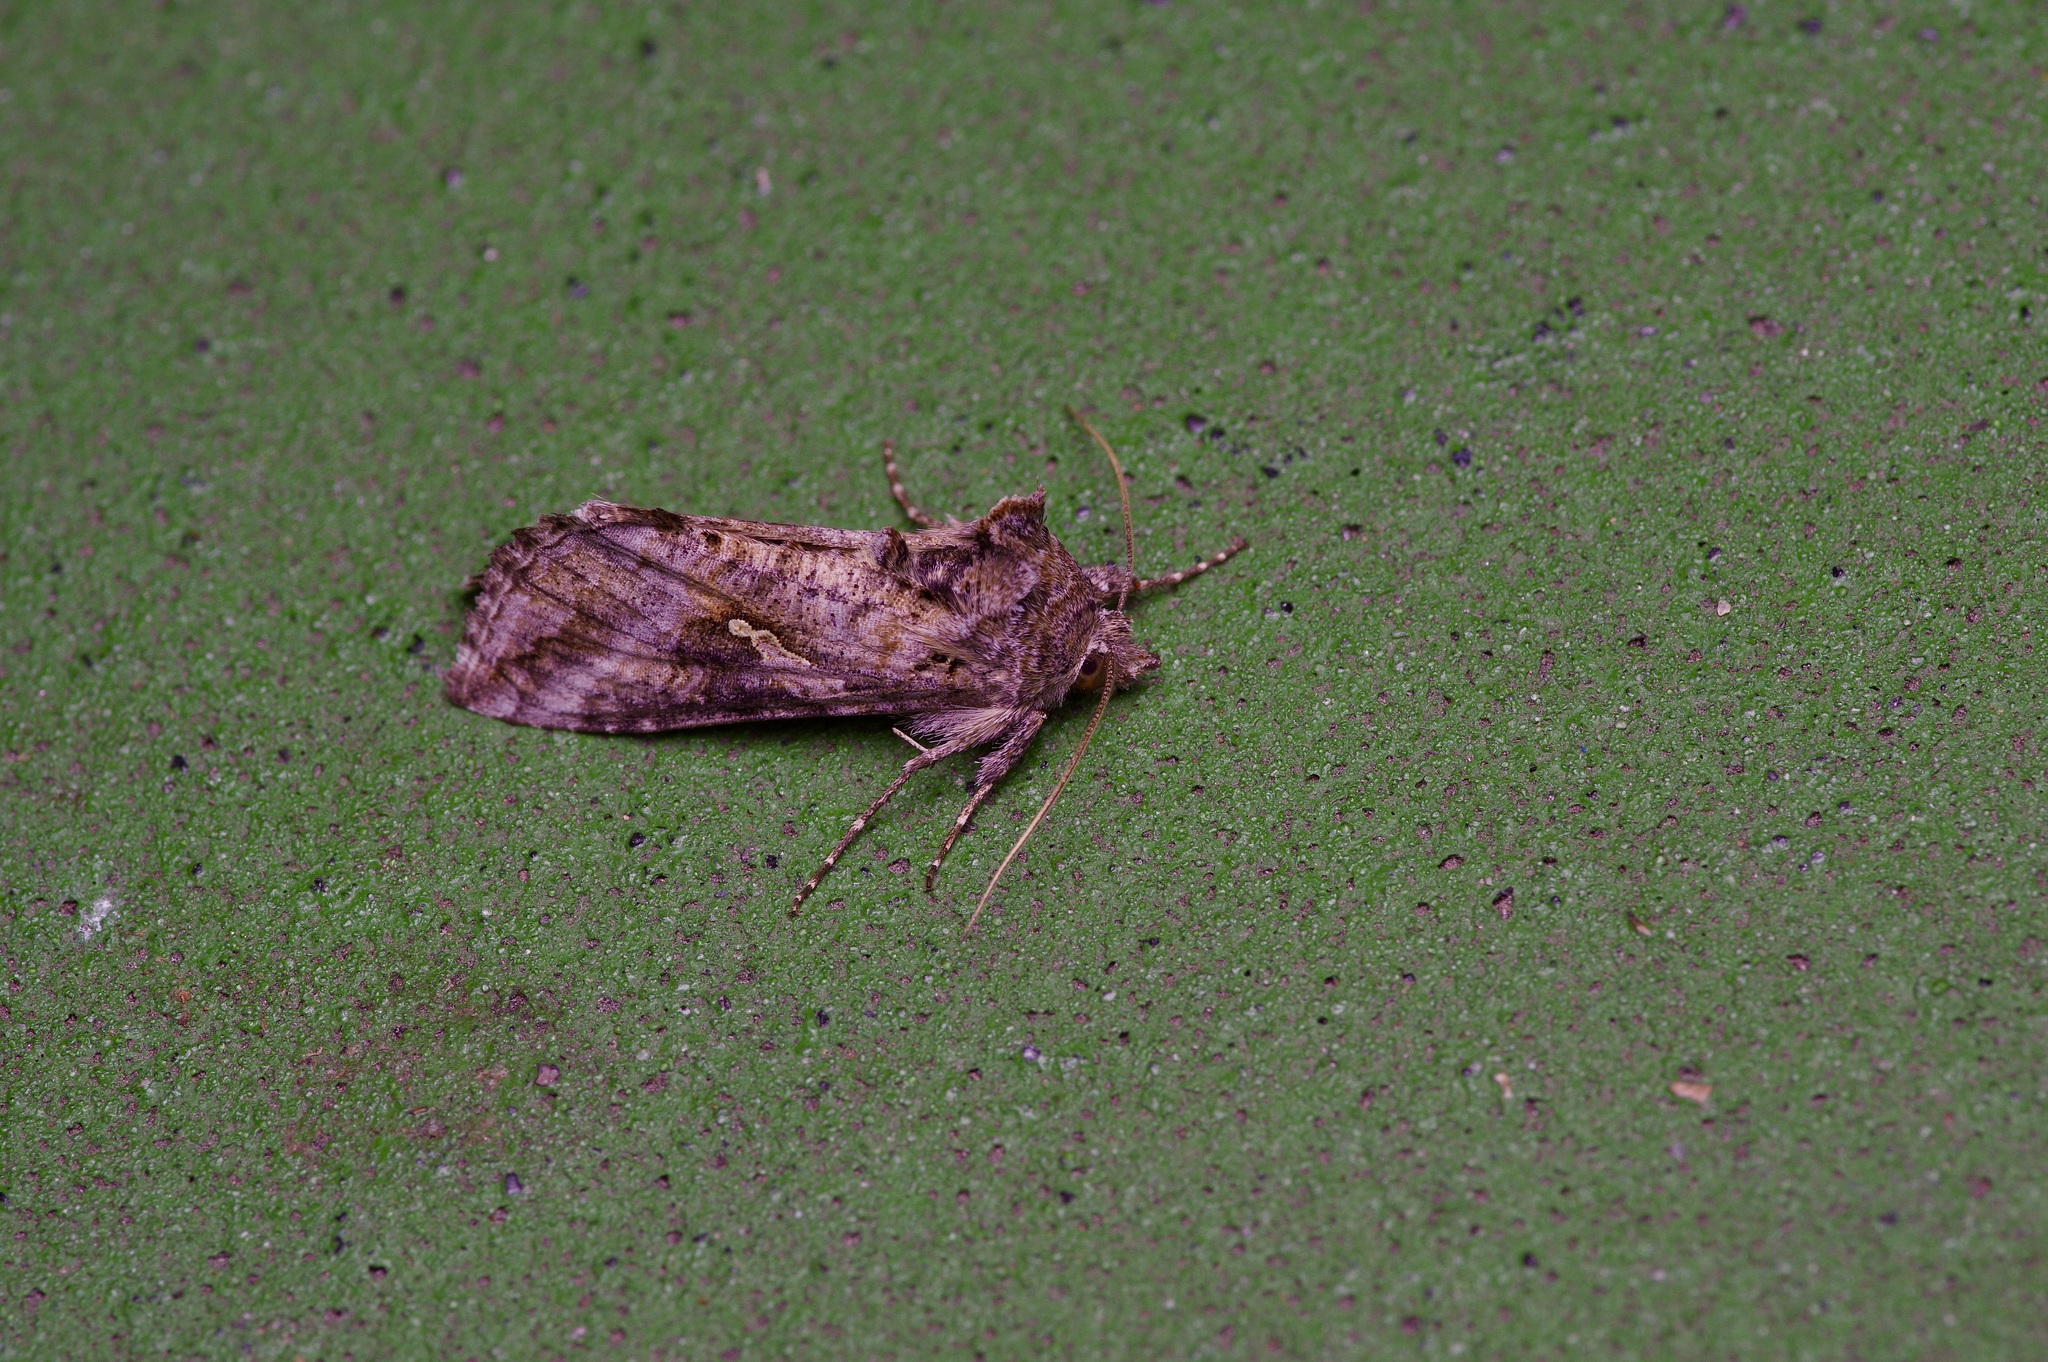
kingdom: Animalia
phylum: Arthropoda
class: Insecta
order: Lepidoptera
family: Noctuidae
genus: Rachiplusia
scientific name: Rachiplusia ou
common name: Gray looper moth
